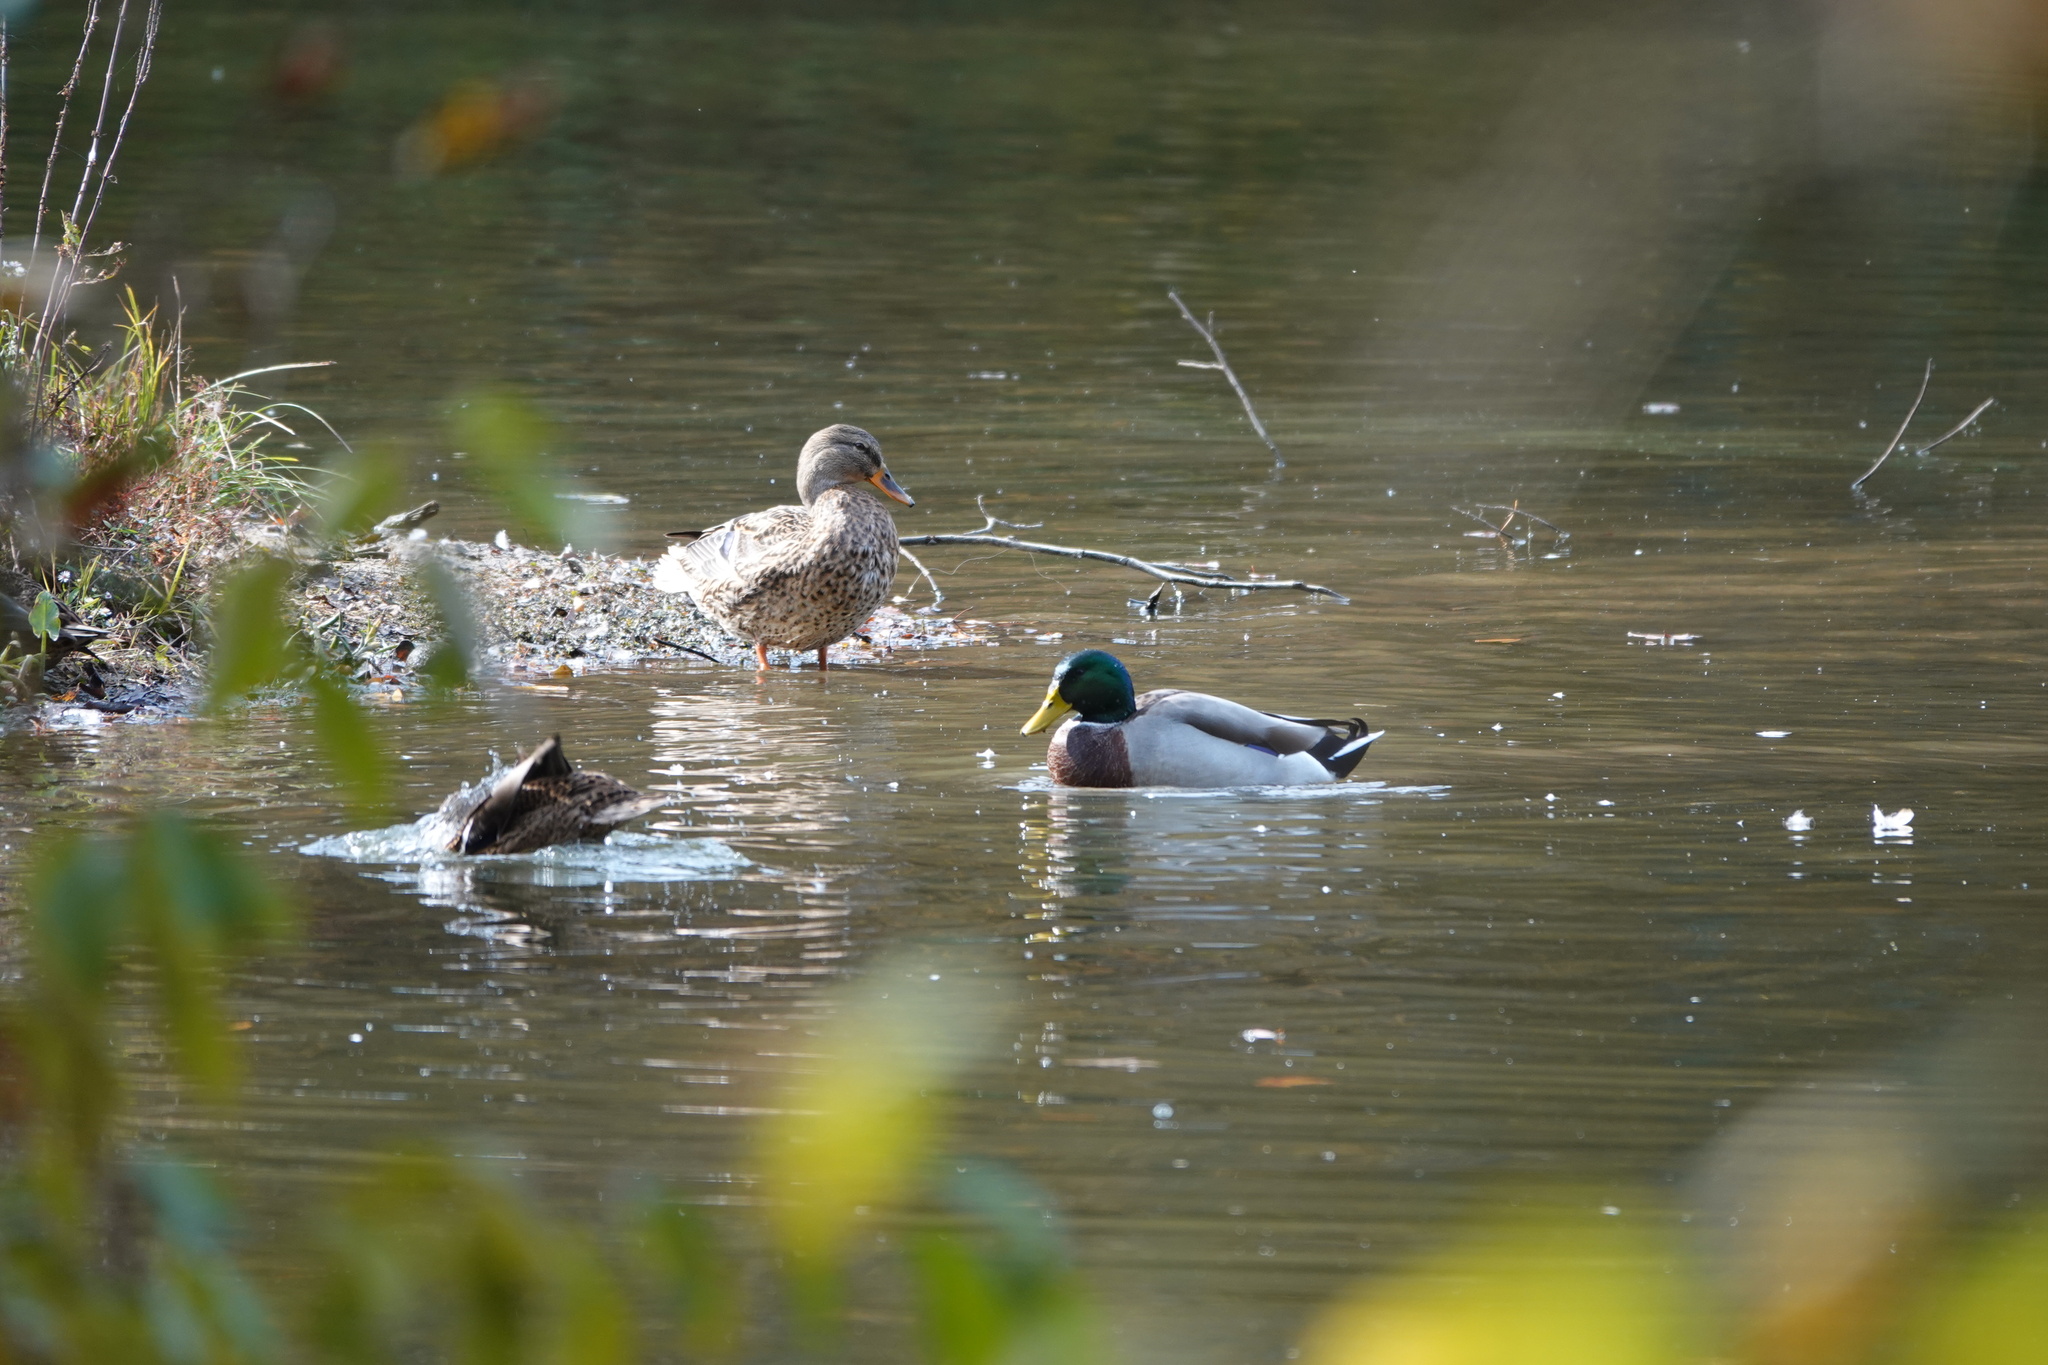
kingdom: Animalia
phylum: Chordata
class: Aves
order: Anseriformes
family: Anatidae
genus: Anas
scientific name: Anas platyrhynchos
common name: Mallard
